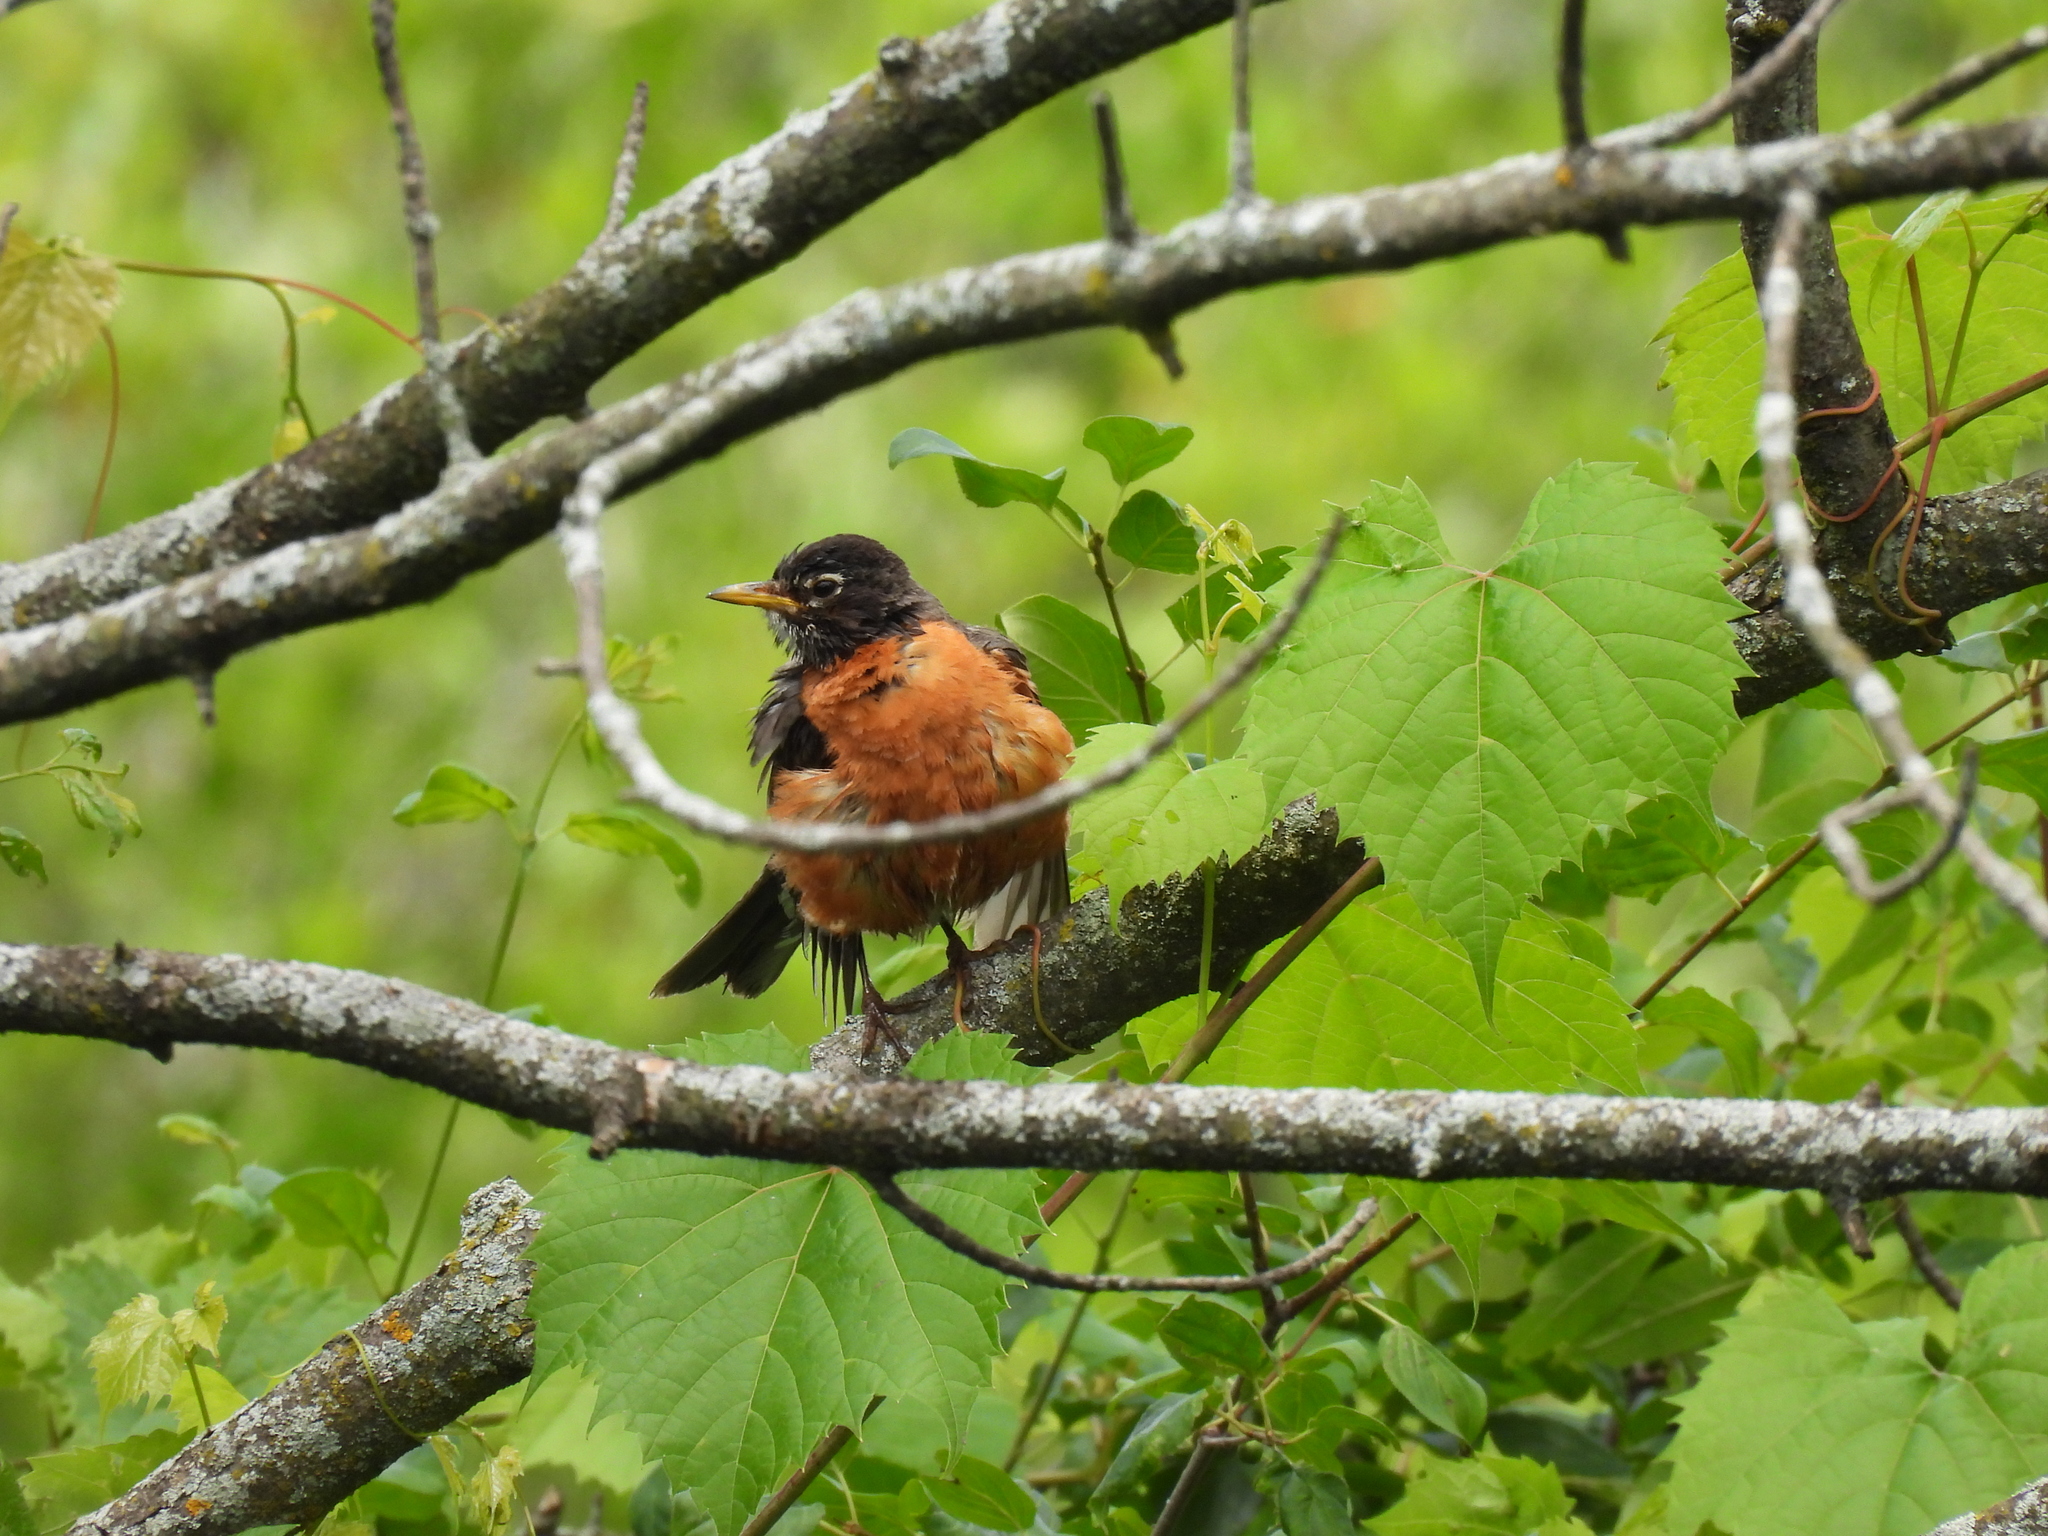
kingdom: Animalia
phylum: Chordata
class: Aves
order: Passeriformes
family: Turdidae
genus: Turdus
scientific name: Turdus migratorius
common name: American robin
